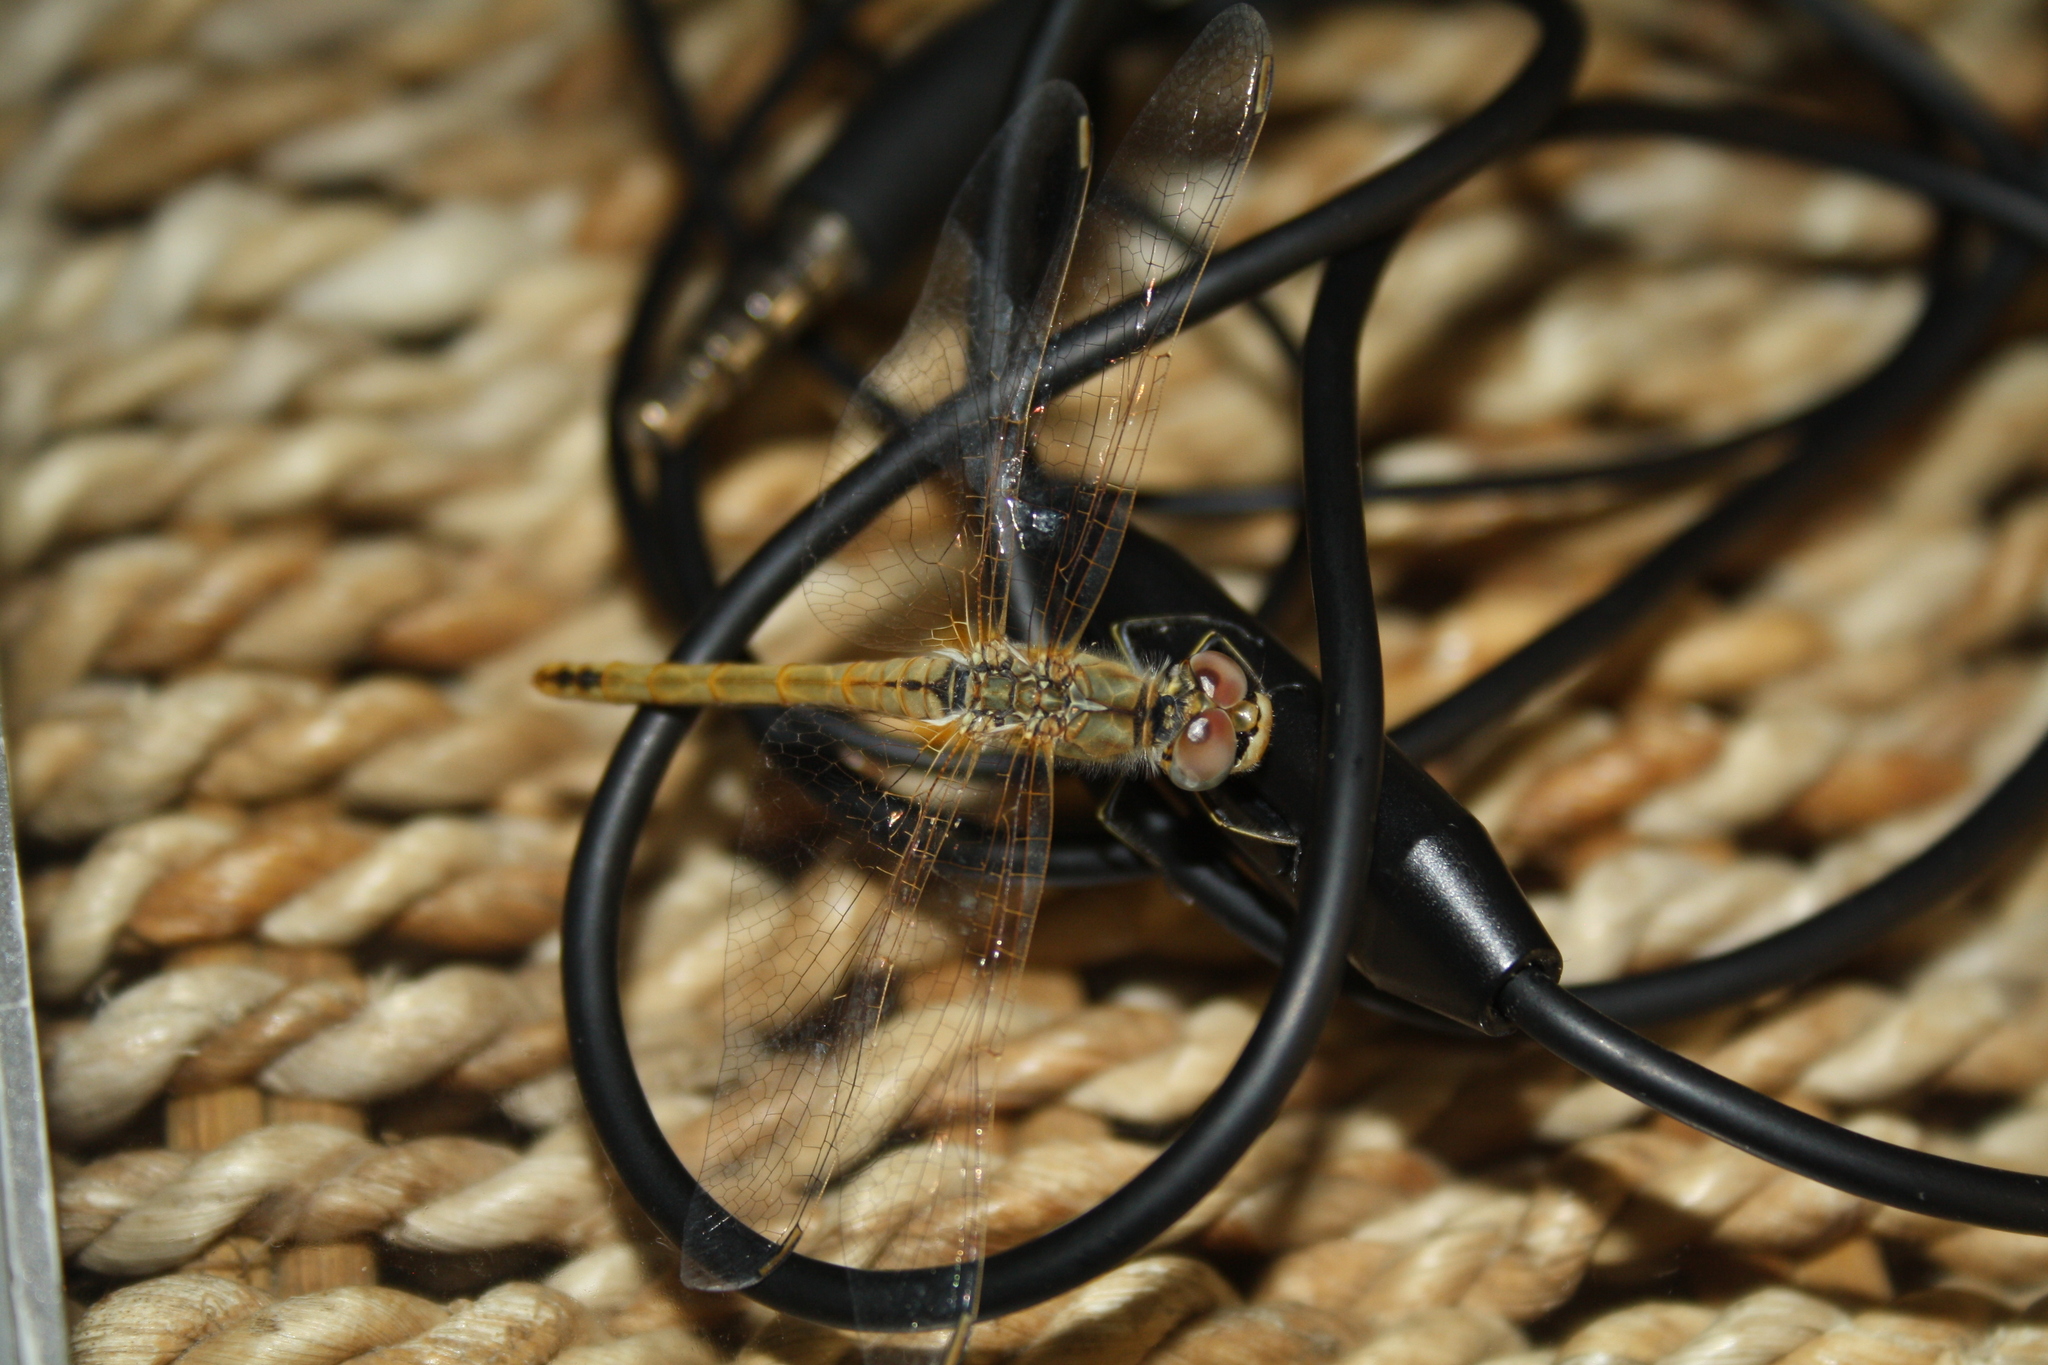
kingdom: Animalia
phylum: Arthropoda
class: Insecta
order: Odonata
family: Libellulidae
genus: Sympetrum
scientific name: Sympetrum fonscolombii
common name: Red-veined darter
